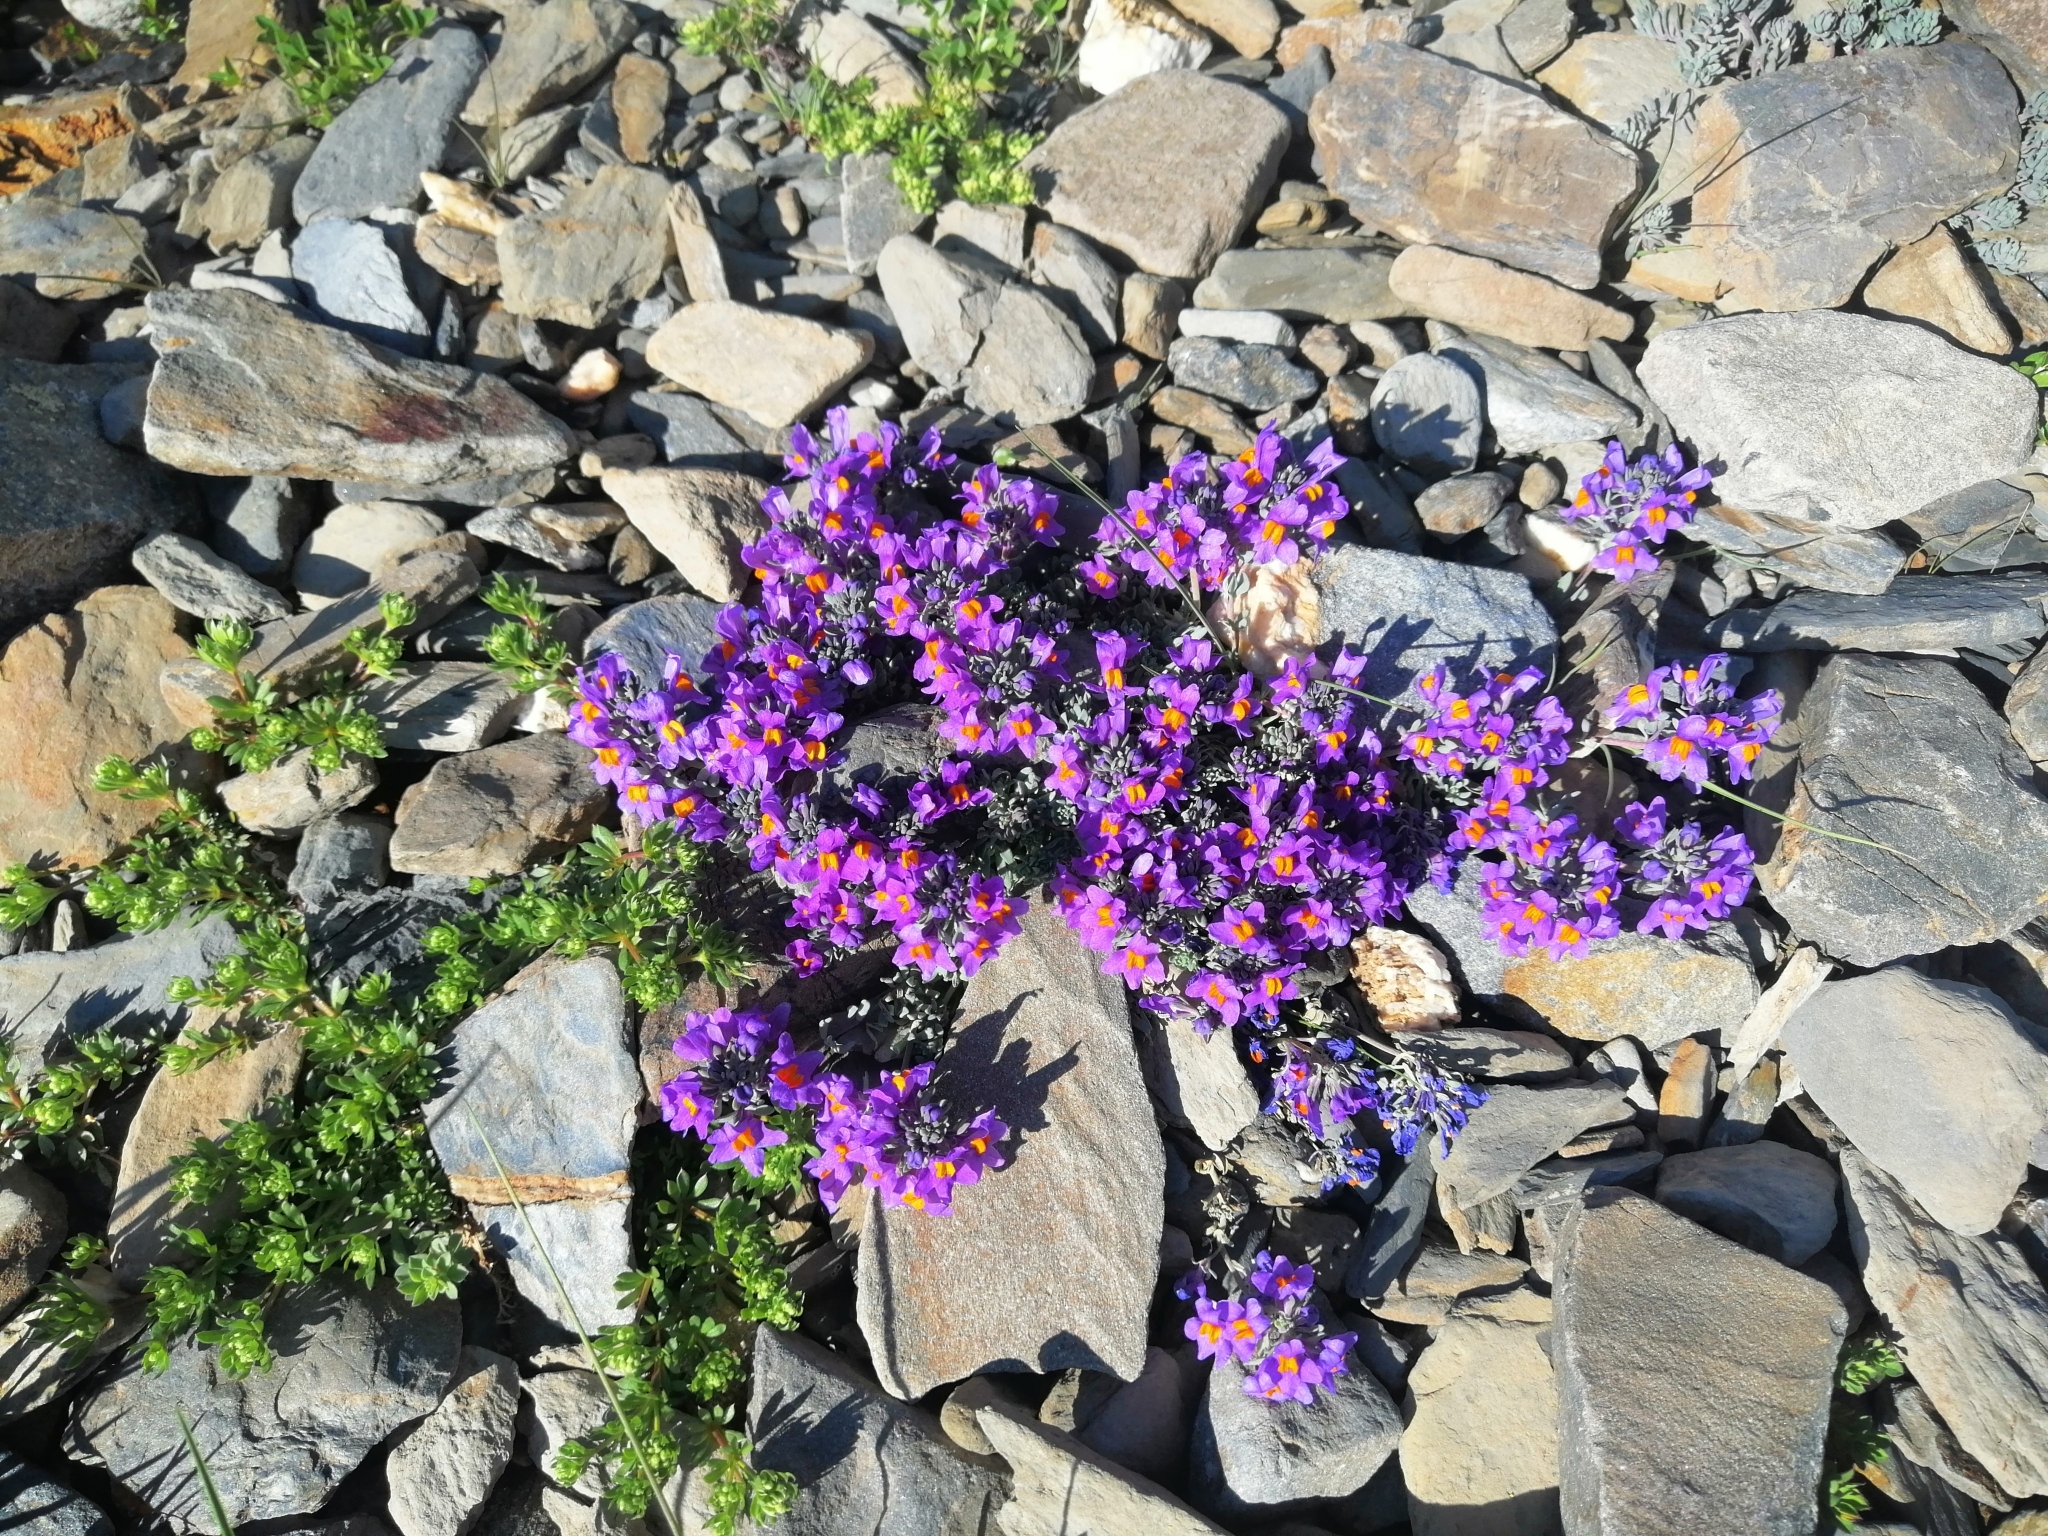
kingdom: Plantae
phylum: Tracheophyta
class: Magnoliopsida
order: Lamiales
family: Plantaginaceae
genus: Linaria
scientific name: Linaria alpina
